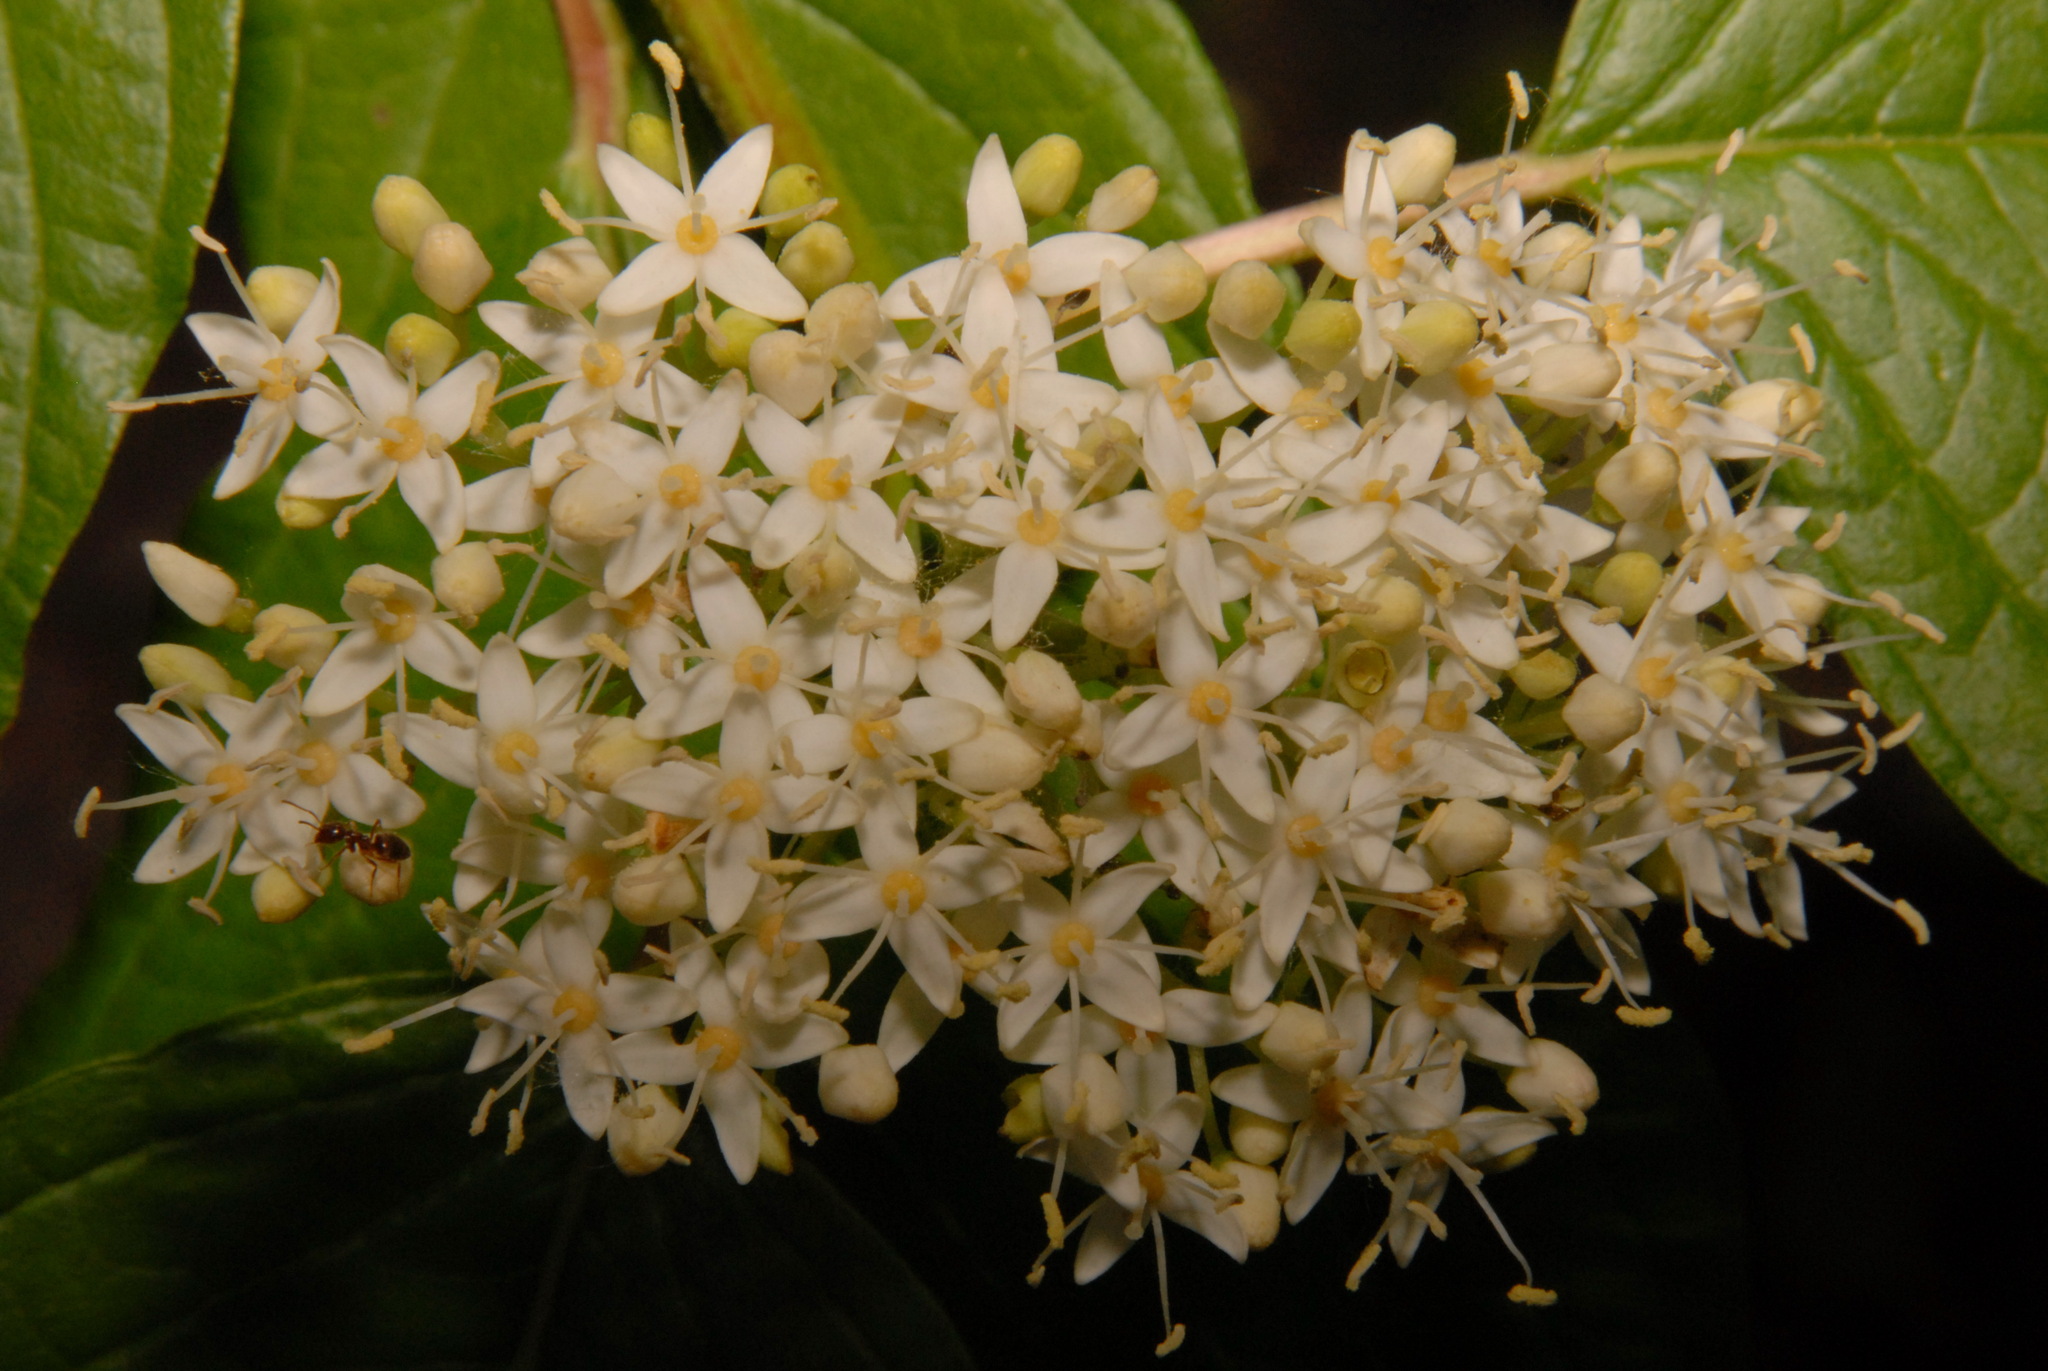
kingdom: Plantae
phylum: Tracheophyta
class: Magnoliopsida
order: Cornales
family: Cornaceae
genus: Cornus
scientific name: Cornus sericea
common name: Red-osier dogwood
